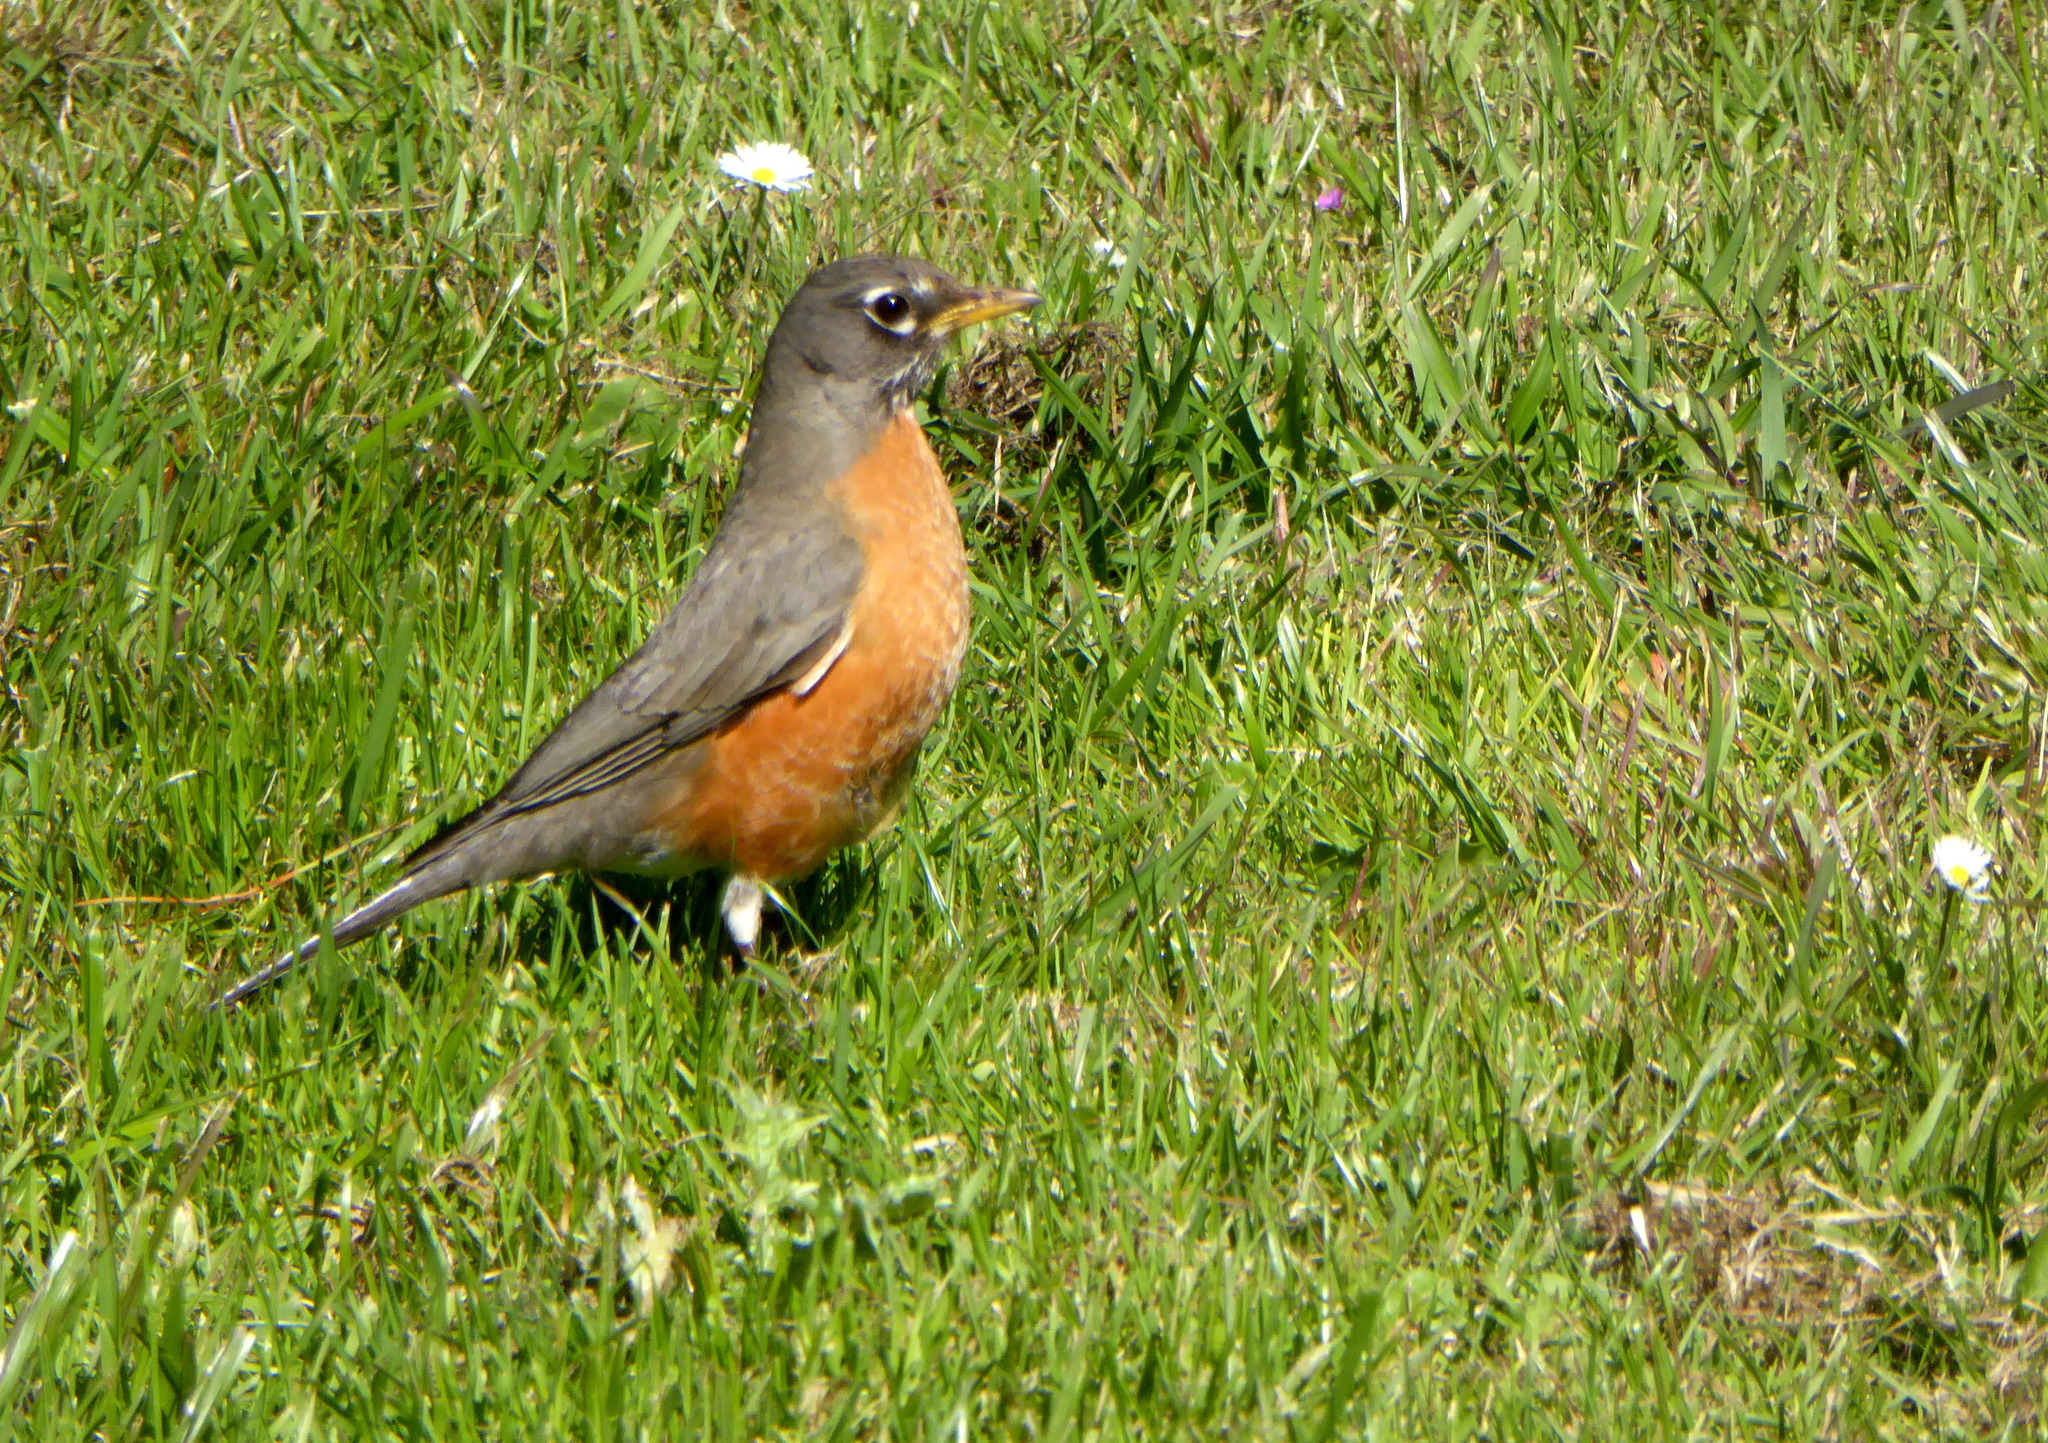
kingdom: Animalia
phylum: Chordata
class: Aves
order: Passeriformes
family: Turdidae
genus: Turdus
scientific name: Turdus migratorius
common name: American robin
